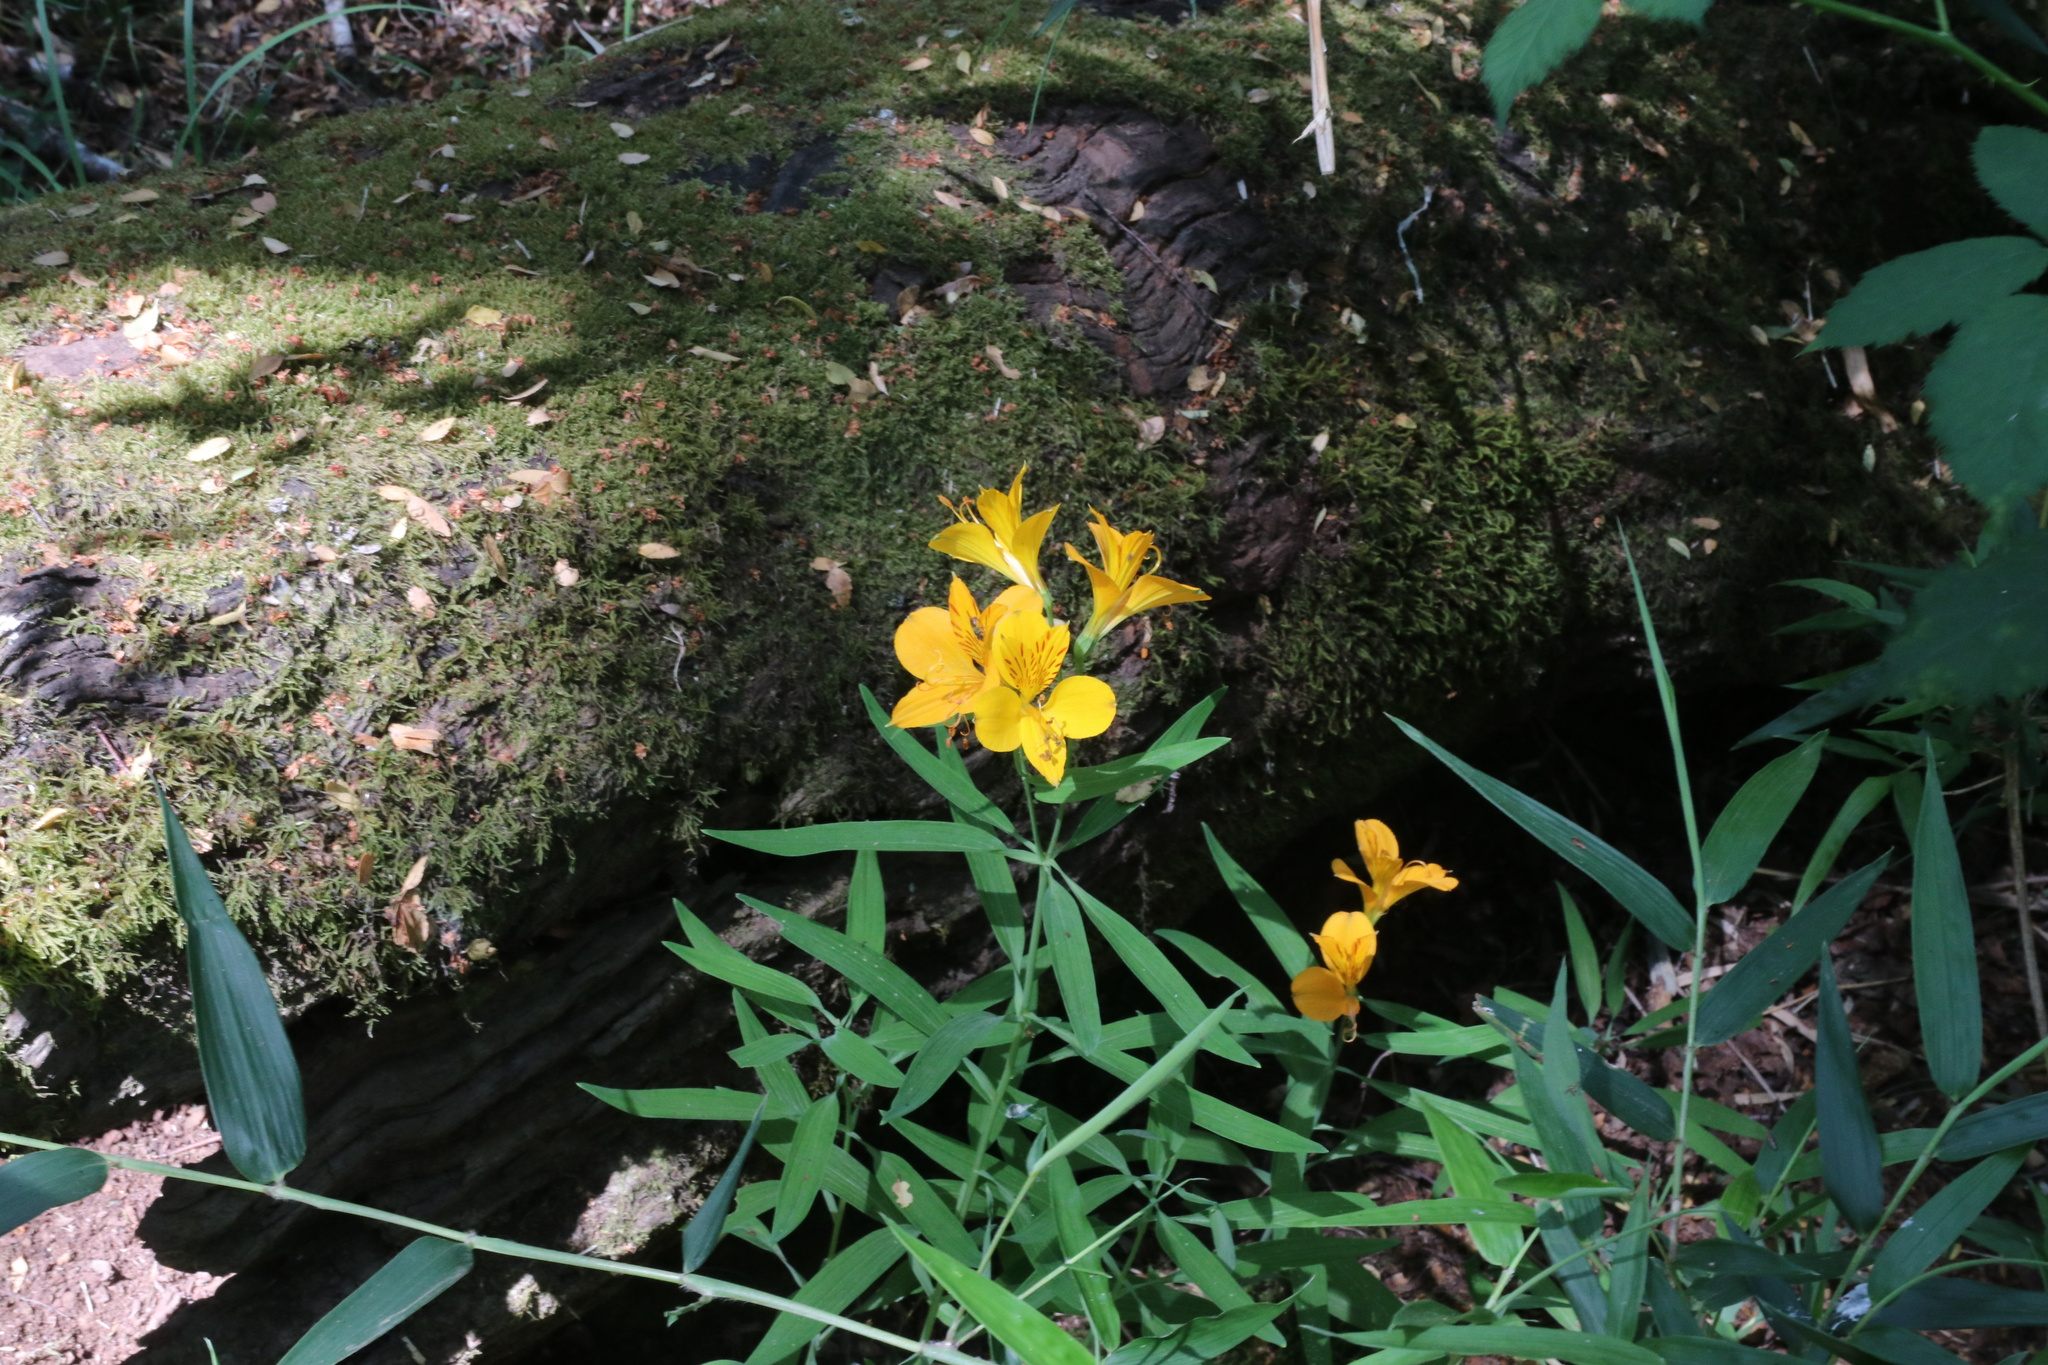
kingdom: Plantae
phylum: Tracheophyta
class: Liliopsida
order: Liliales
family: Alstroemeriaceae
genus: Alstroemeria
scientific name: Alstroemeria aurea
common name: Peruvian lily
